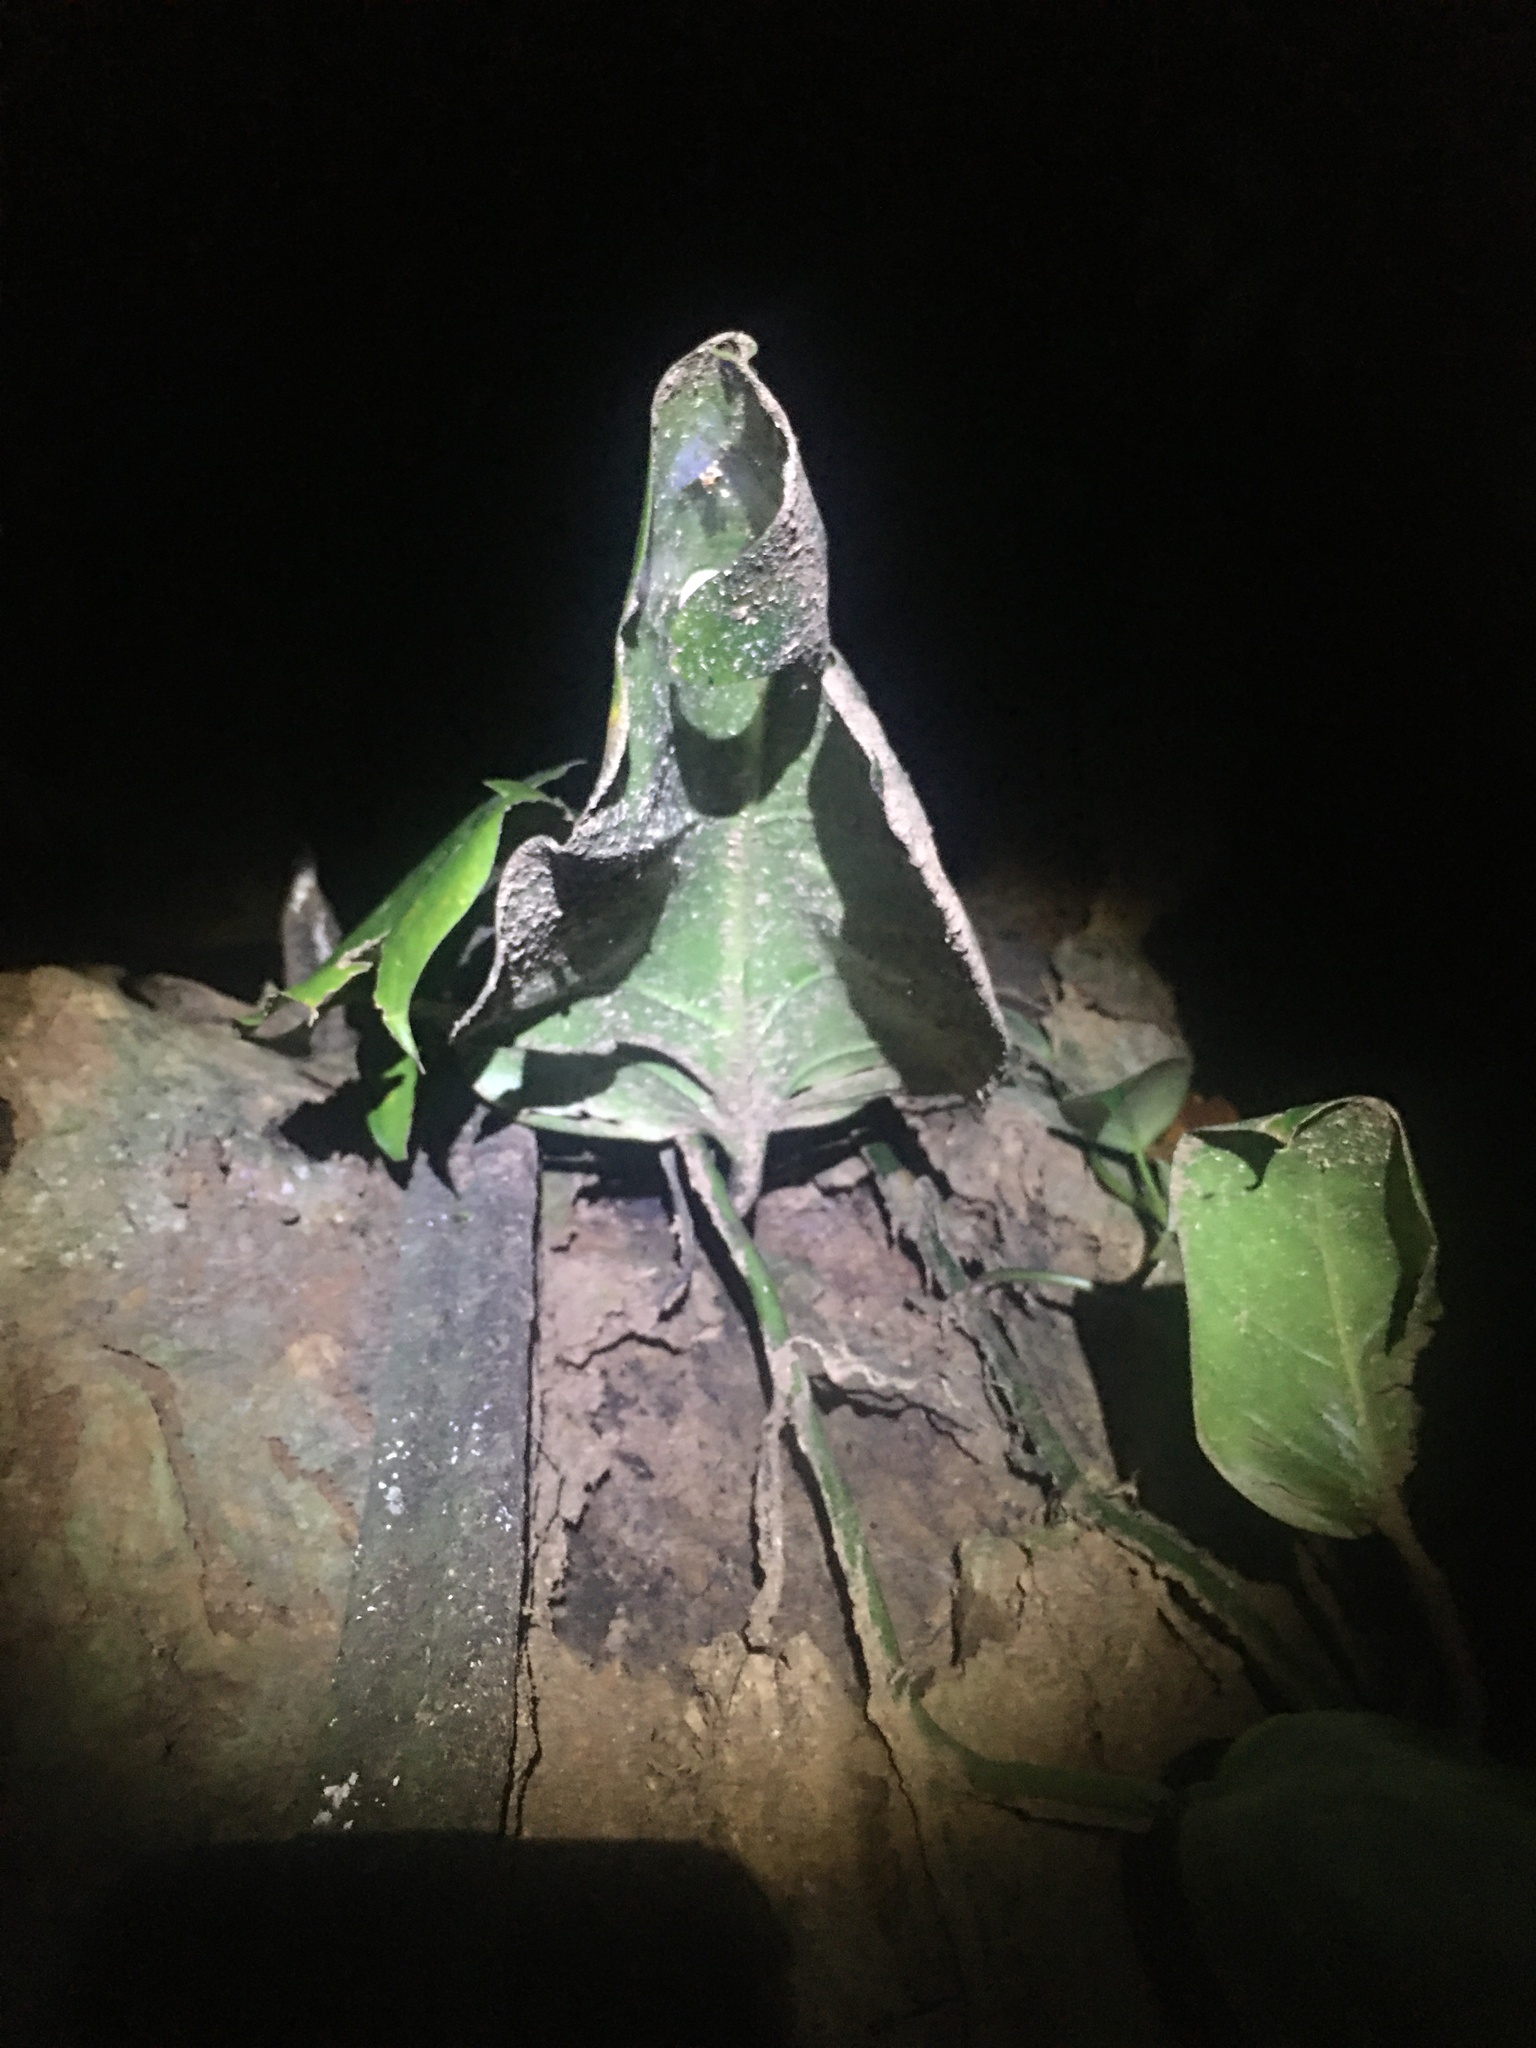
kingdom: Animalia
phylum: Mollusca
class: Gastropoda
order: Stylommatophora
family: Bulimulidae
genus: Drymaeus
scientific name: Drymaeus flexilabris
